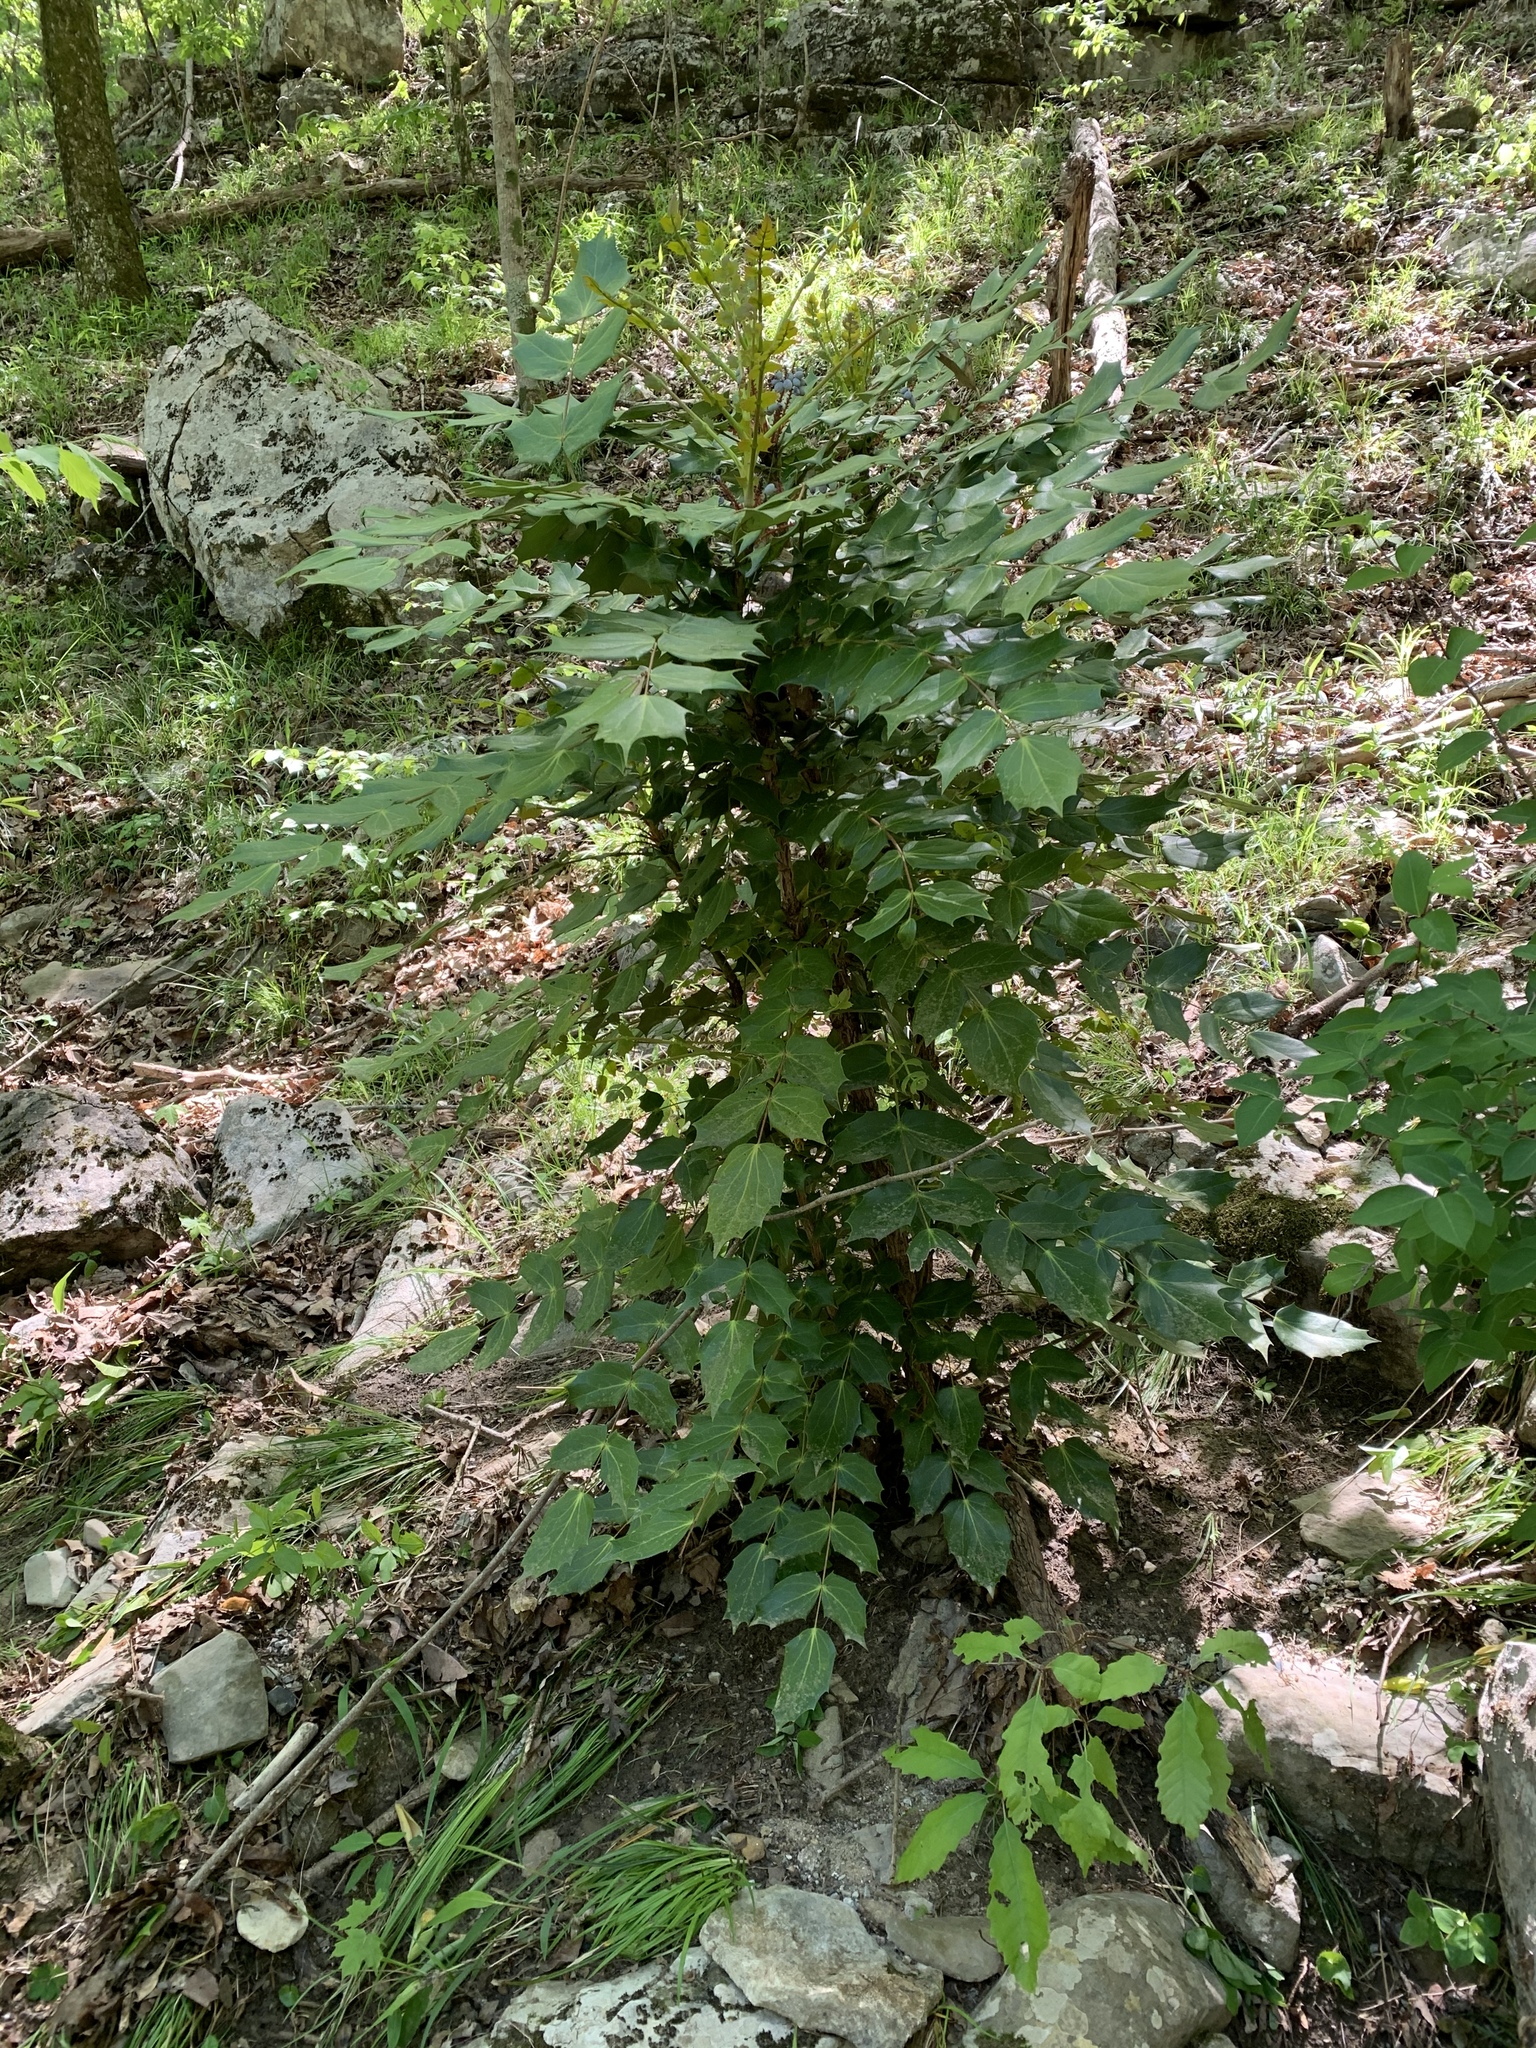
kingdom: Plantae
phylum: Tracheophyta
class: Magnoliopsida
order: Ranunculales
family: Berberidaceae
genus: Mahonia
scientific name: Mahonia bealei
